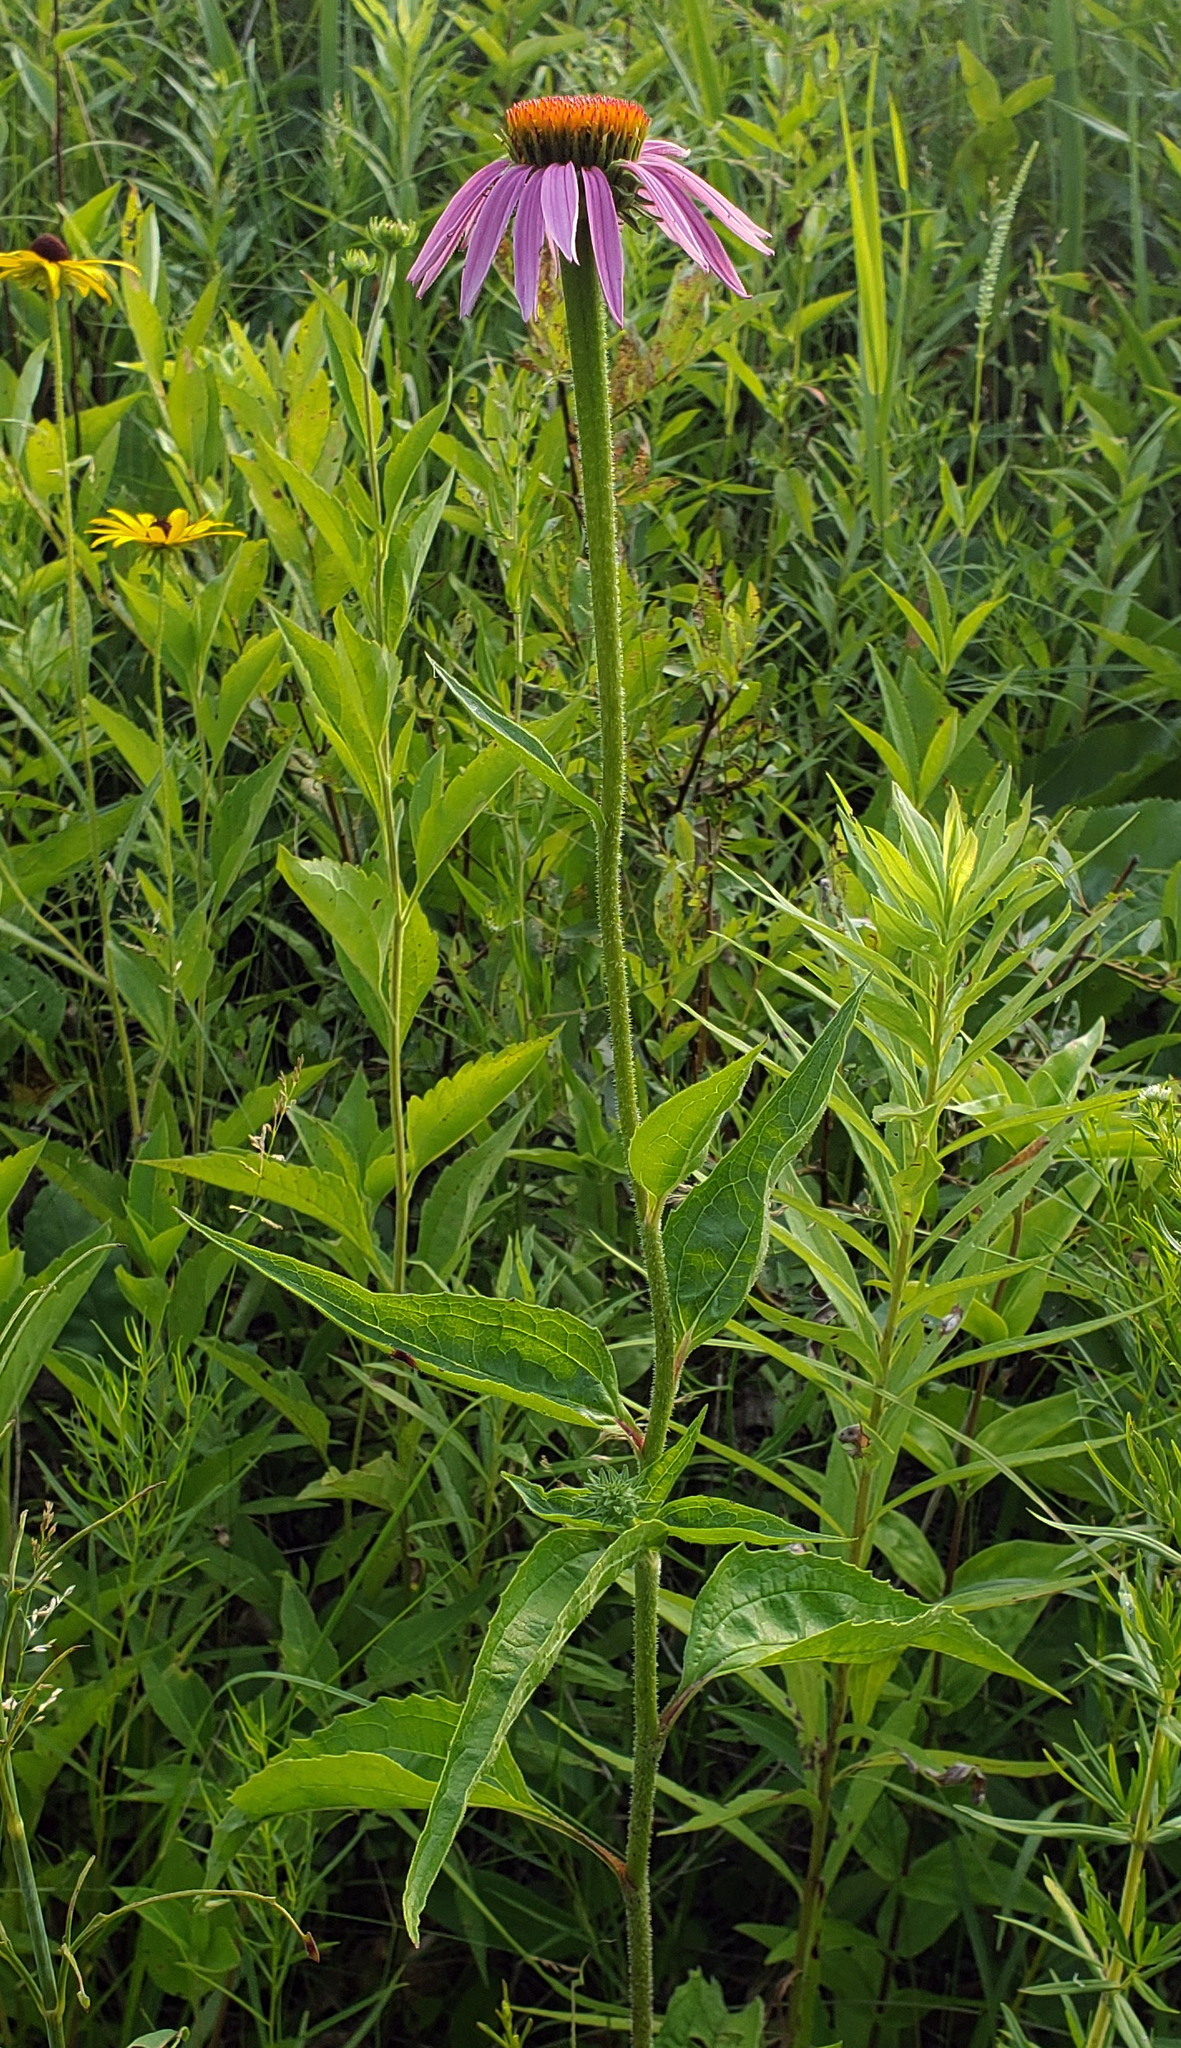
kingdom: Plantae
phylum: Tracheophyta
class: Magnoliopsida
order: Asterales
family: Asteraceae
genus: Echinacea
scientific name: Echinacea purpurea
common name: Broad-leaved purple coneflower
